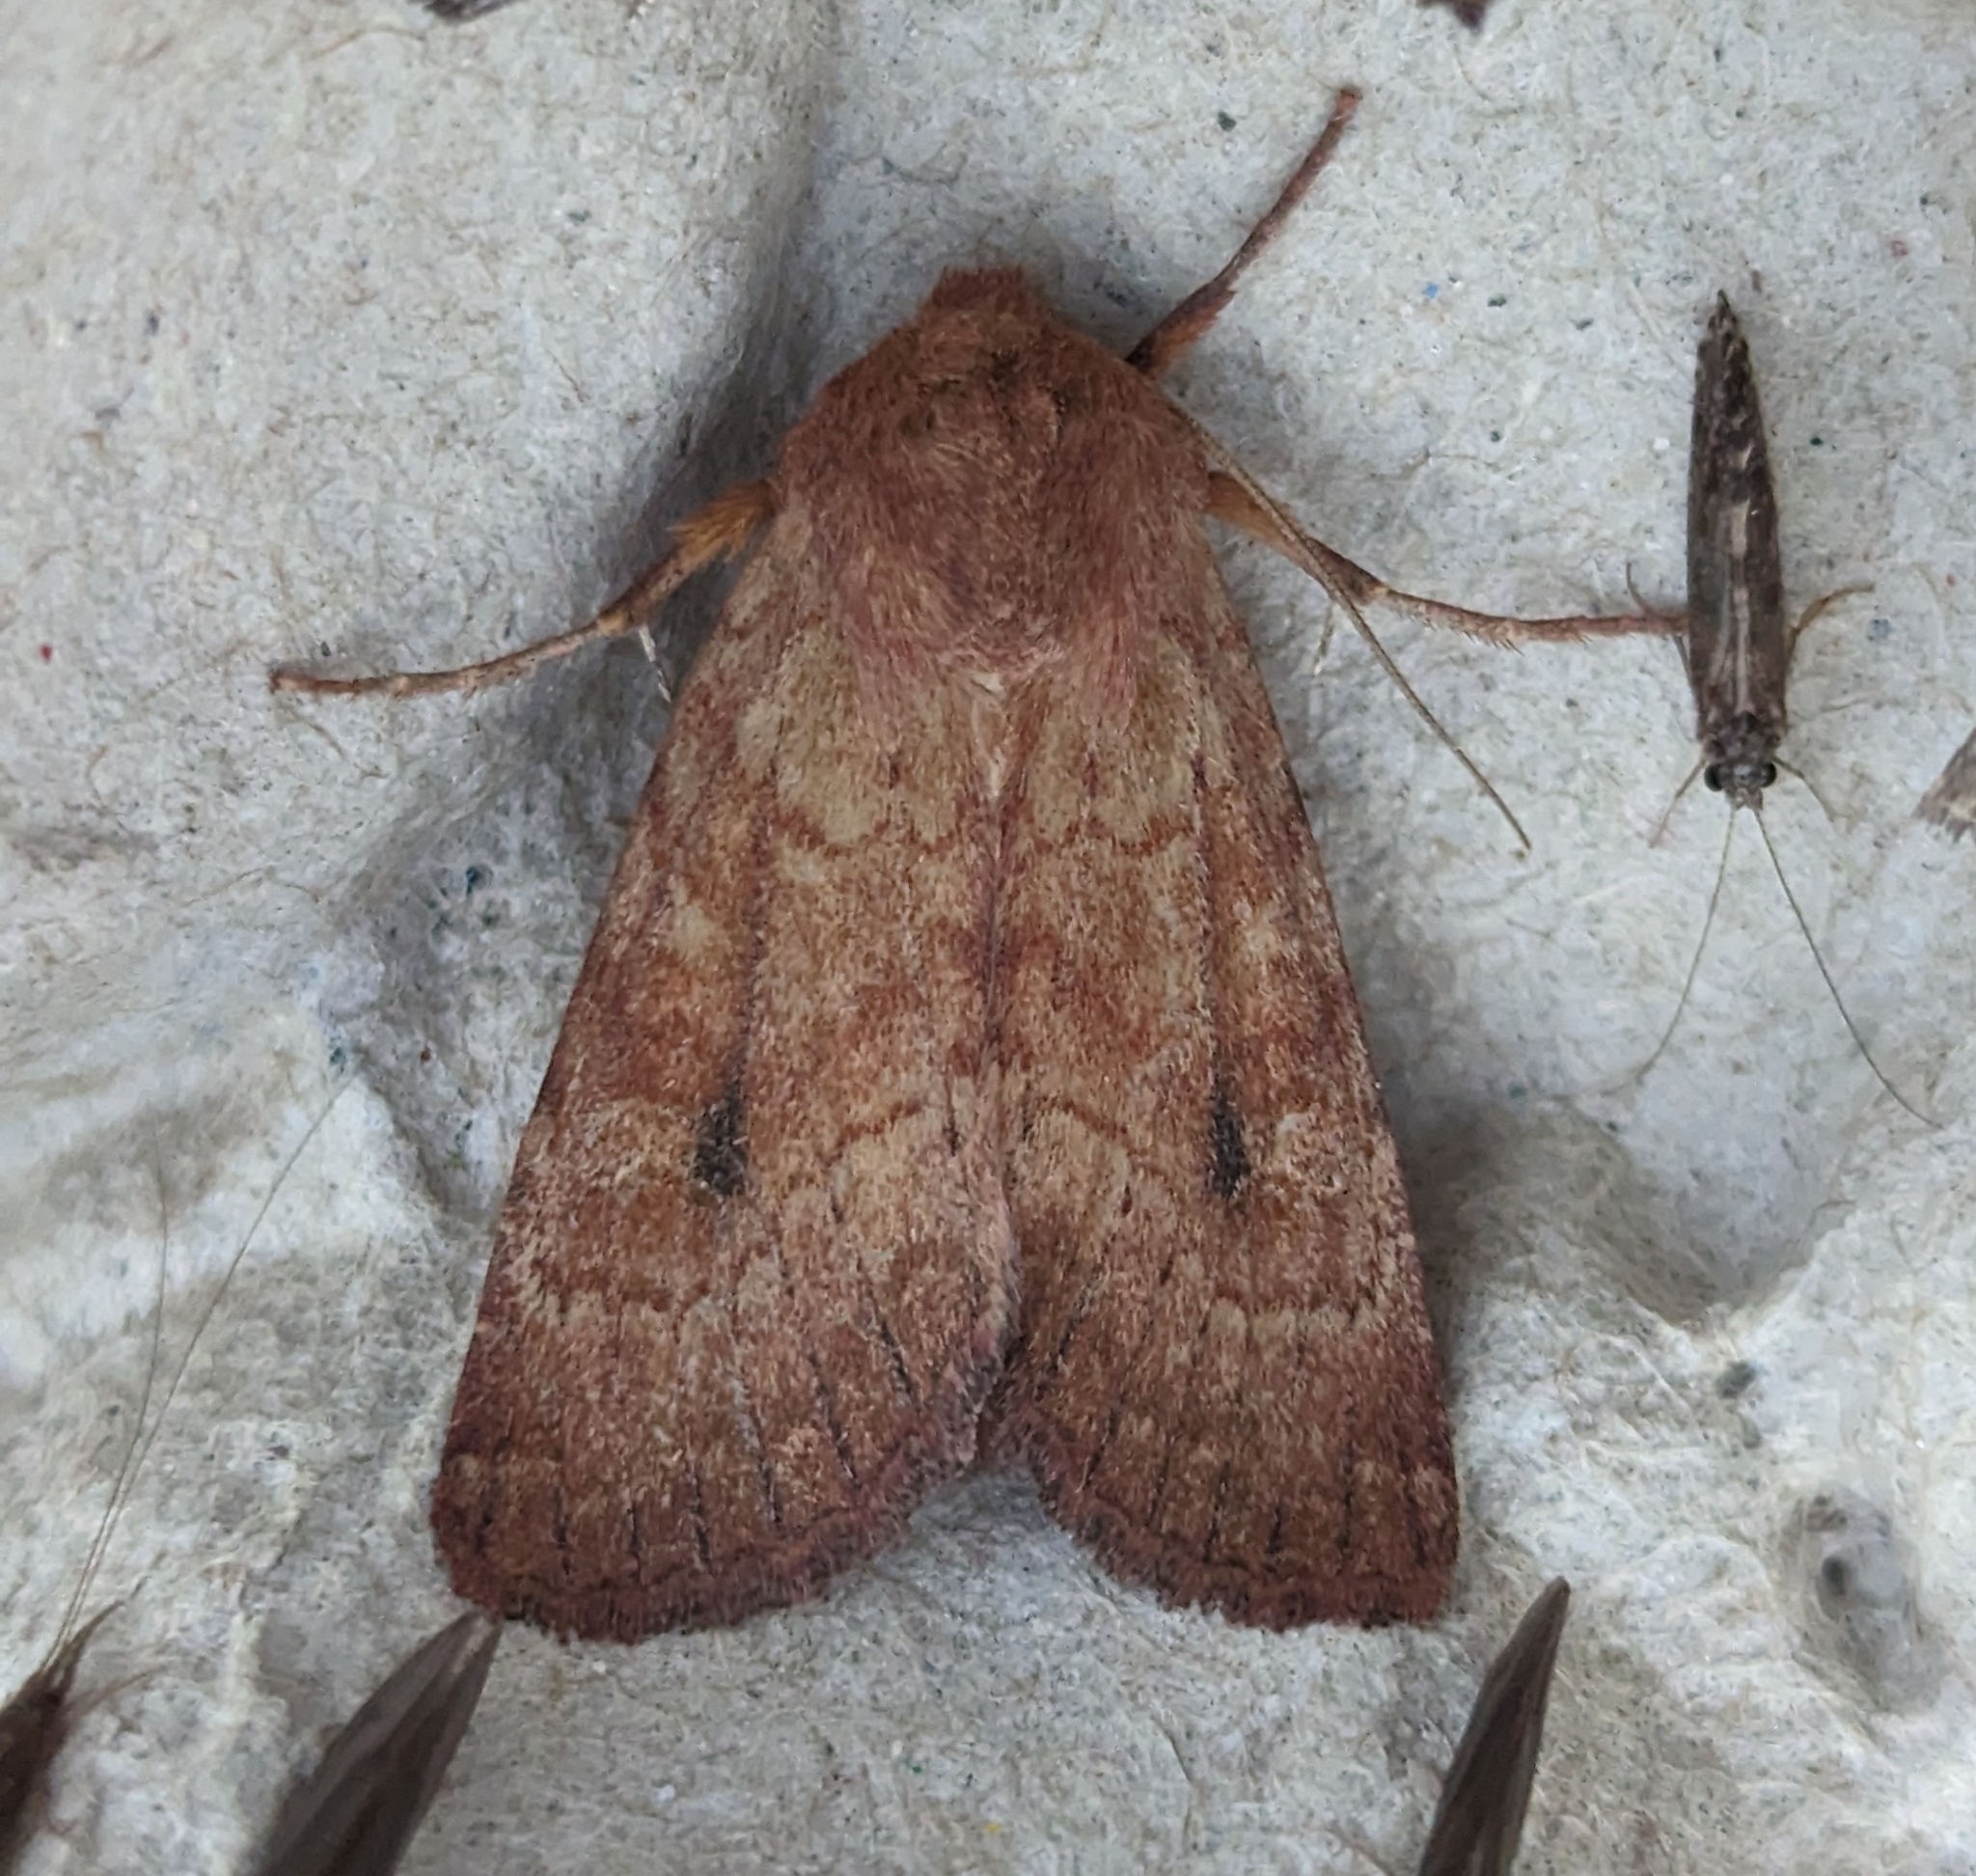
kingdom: Animalia
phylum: Arthropoda
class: Insecta
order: Lepidoptera
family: Noctuidae
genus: Apamea
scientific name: Apamea inficita
